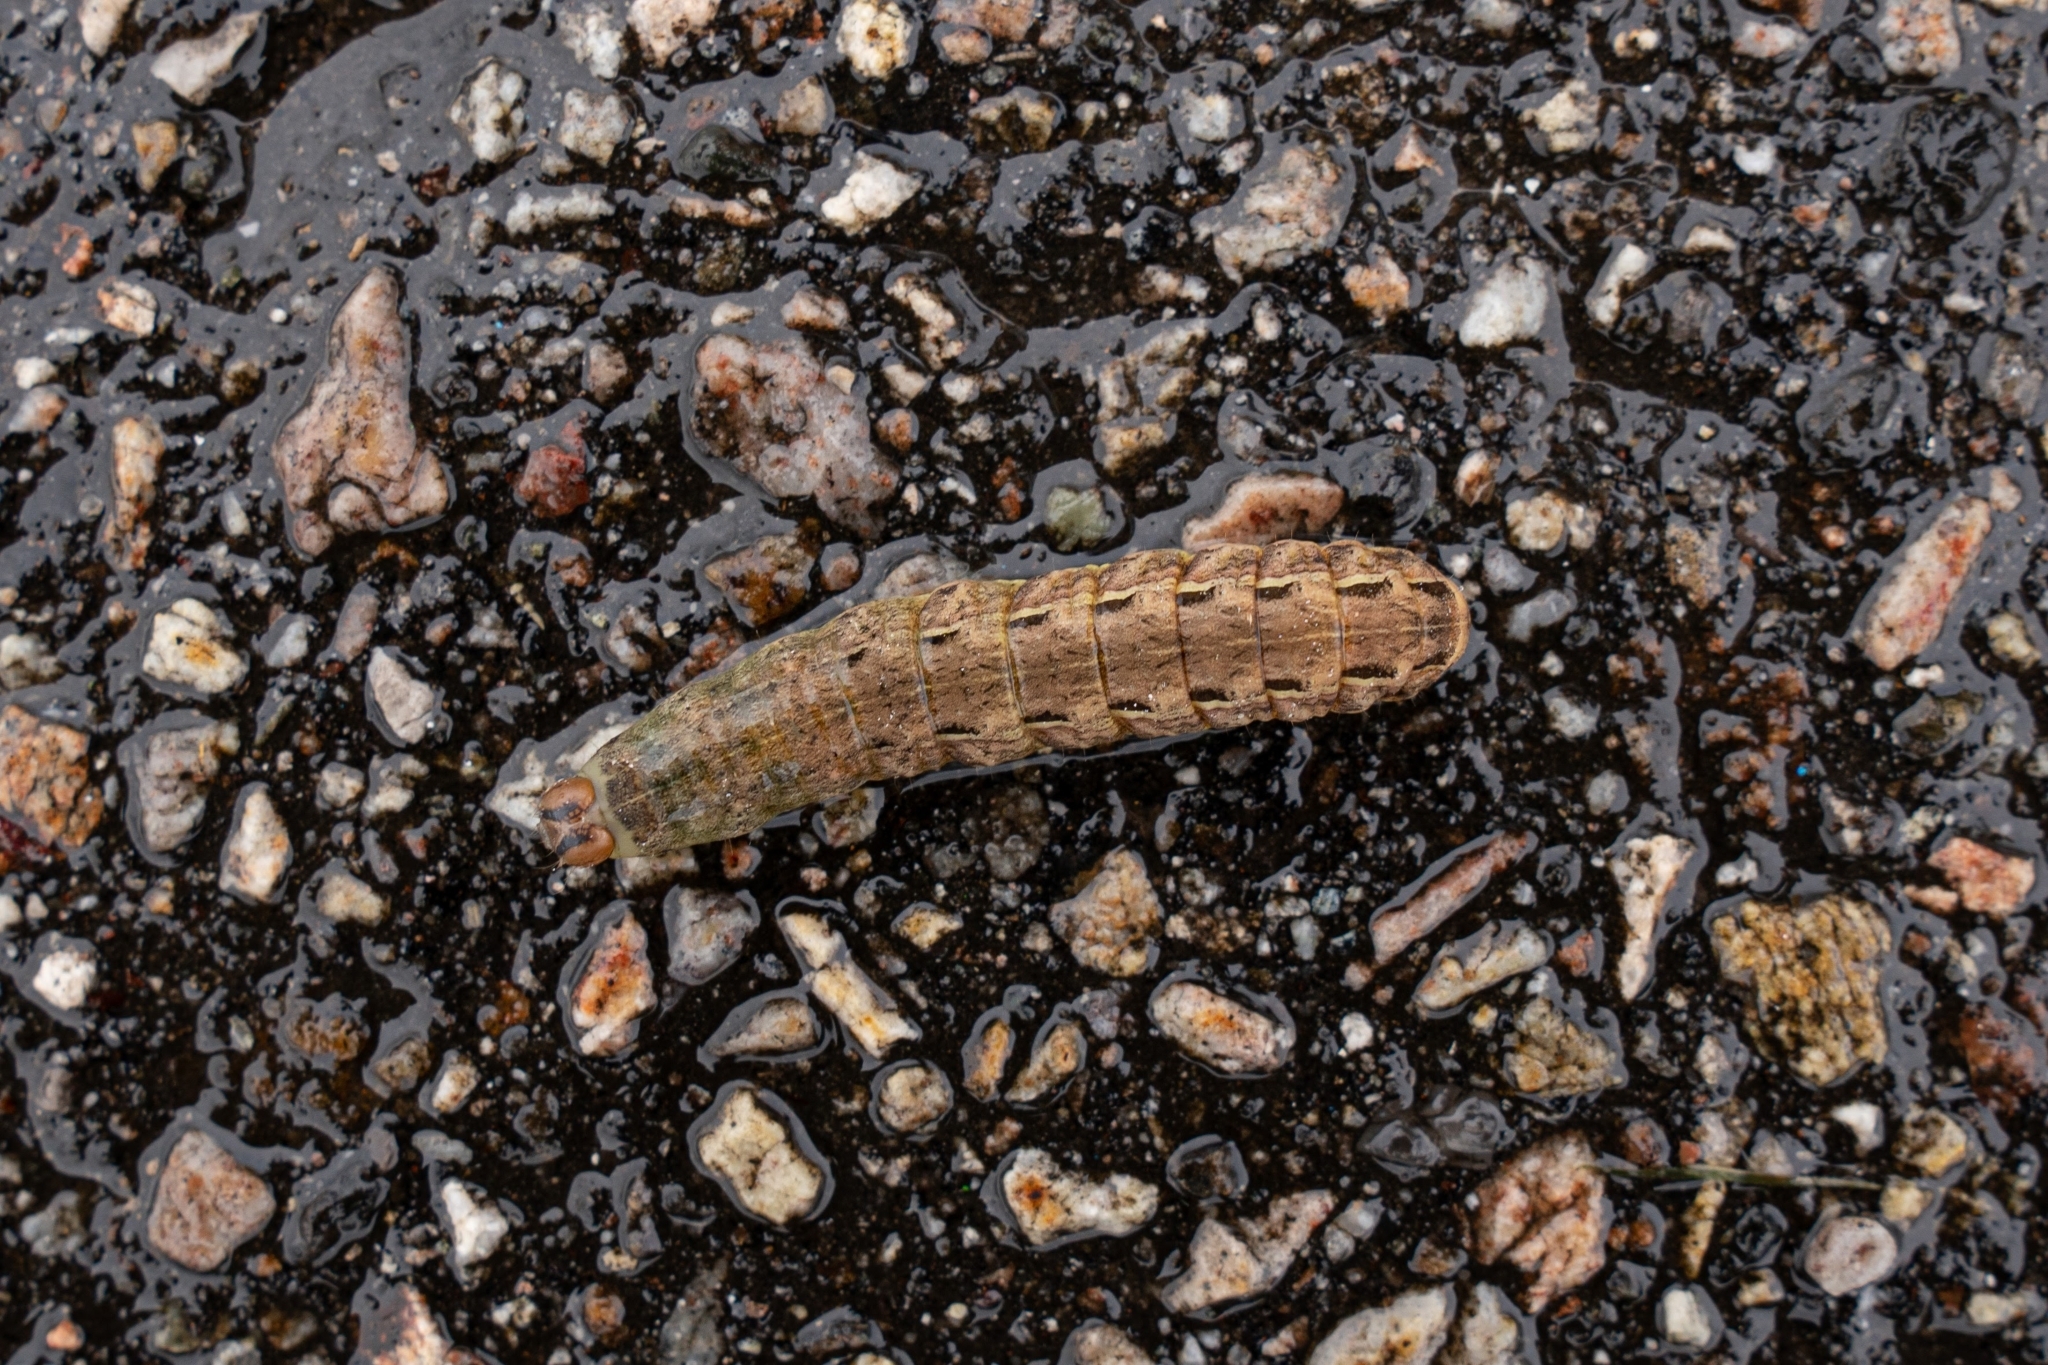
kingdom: Animalia
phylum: Arthropoda
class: Insecta
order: Lepidoptera
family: Noctuidae
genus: Noctua
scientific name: Noctua pronuba
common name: Large yellow underwing
